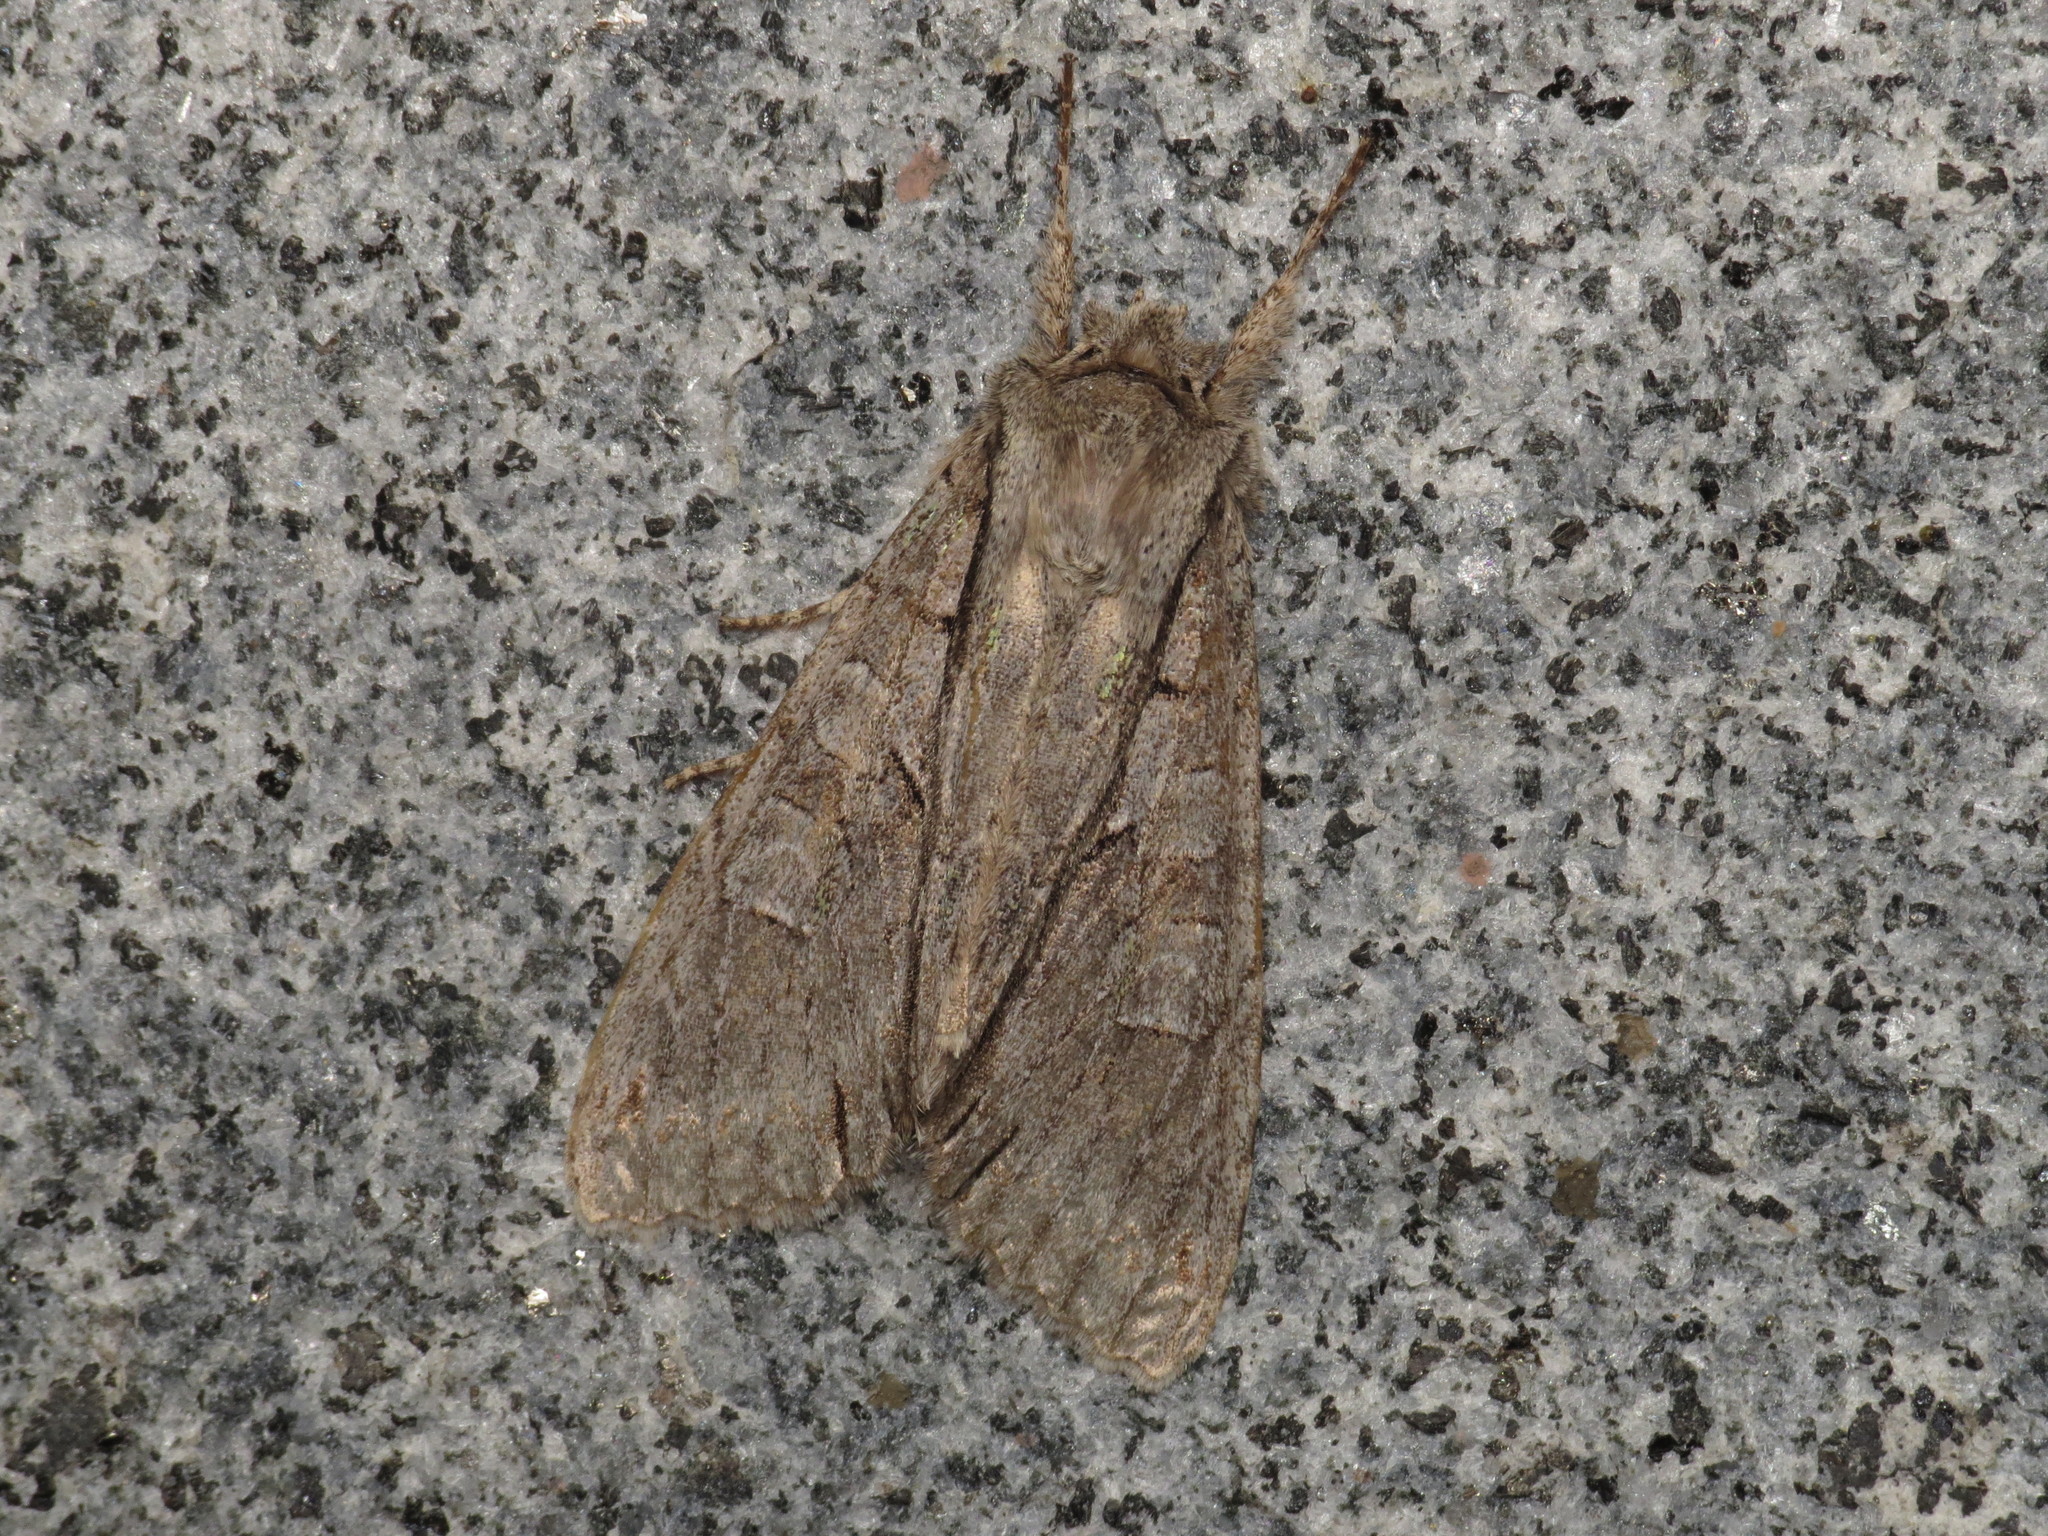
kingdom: Animalia
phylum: Arthropoda
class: Insecta
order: Lepidoptera
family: Noctuidae
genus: Meganephria
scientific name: Meganephria
